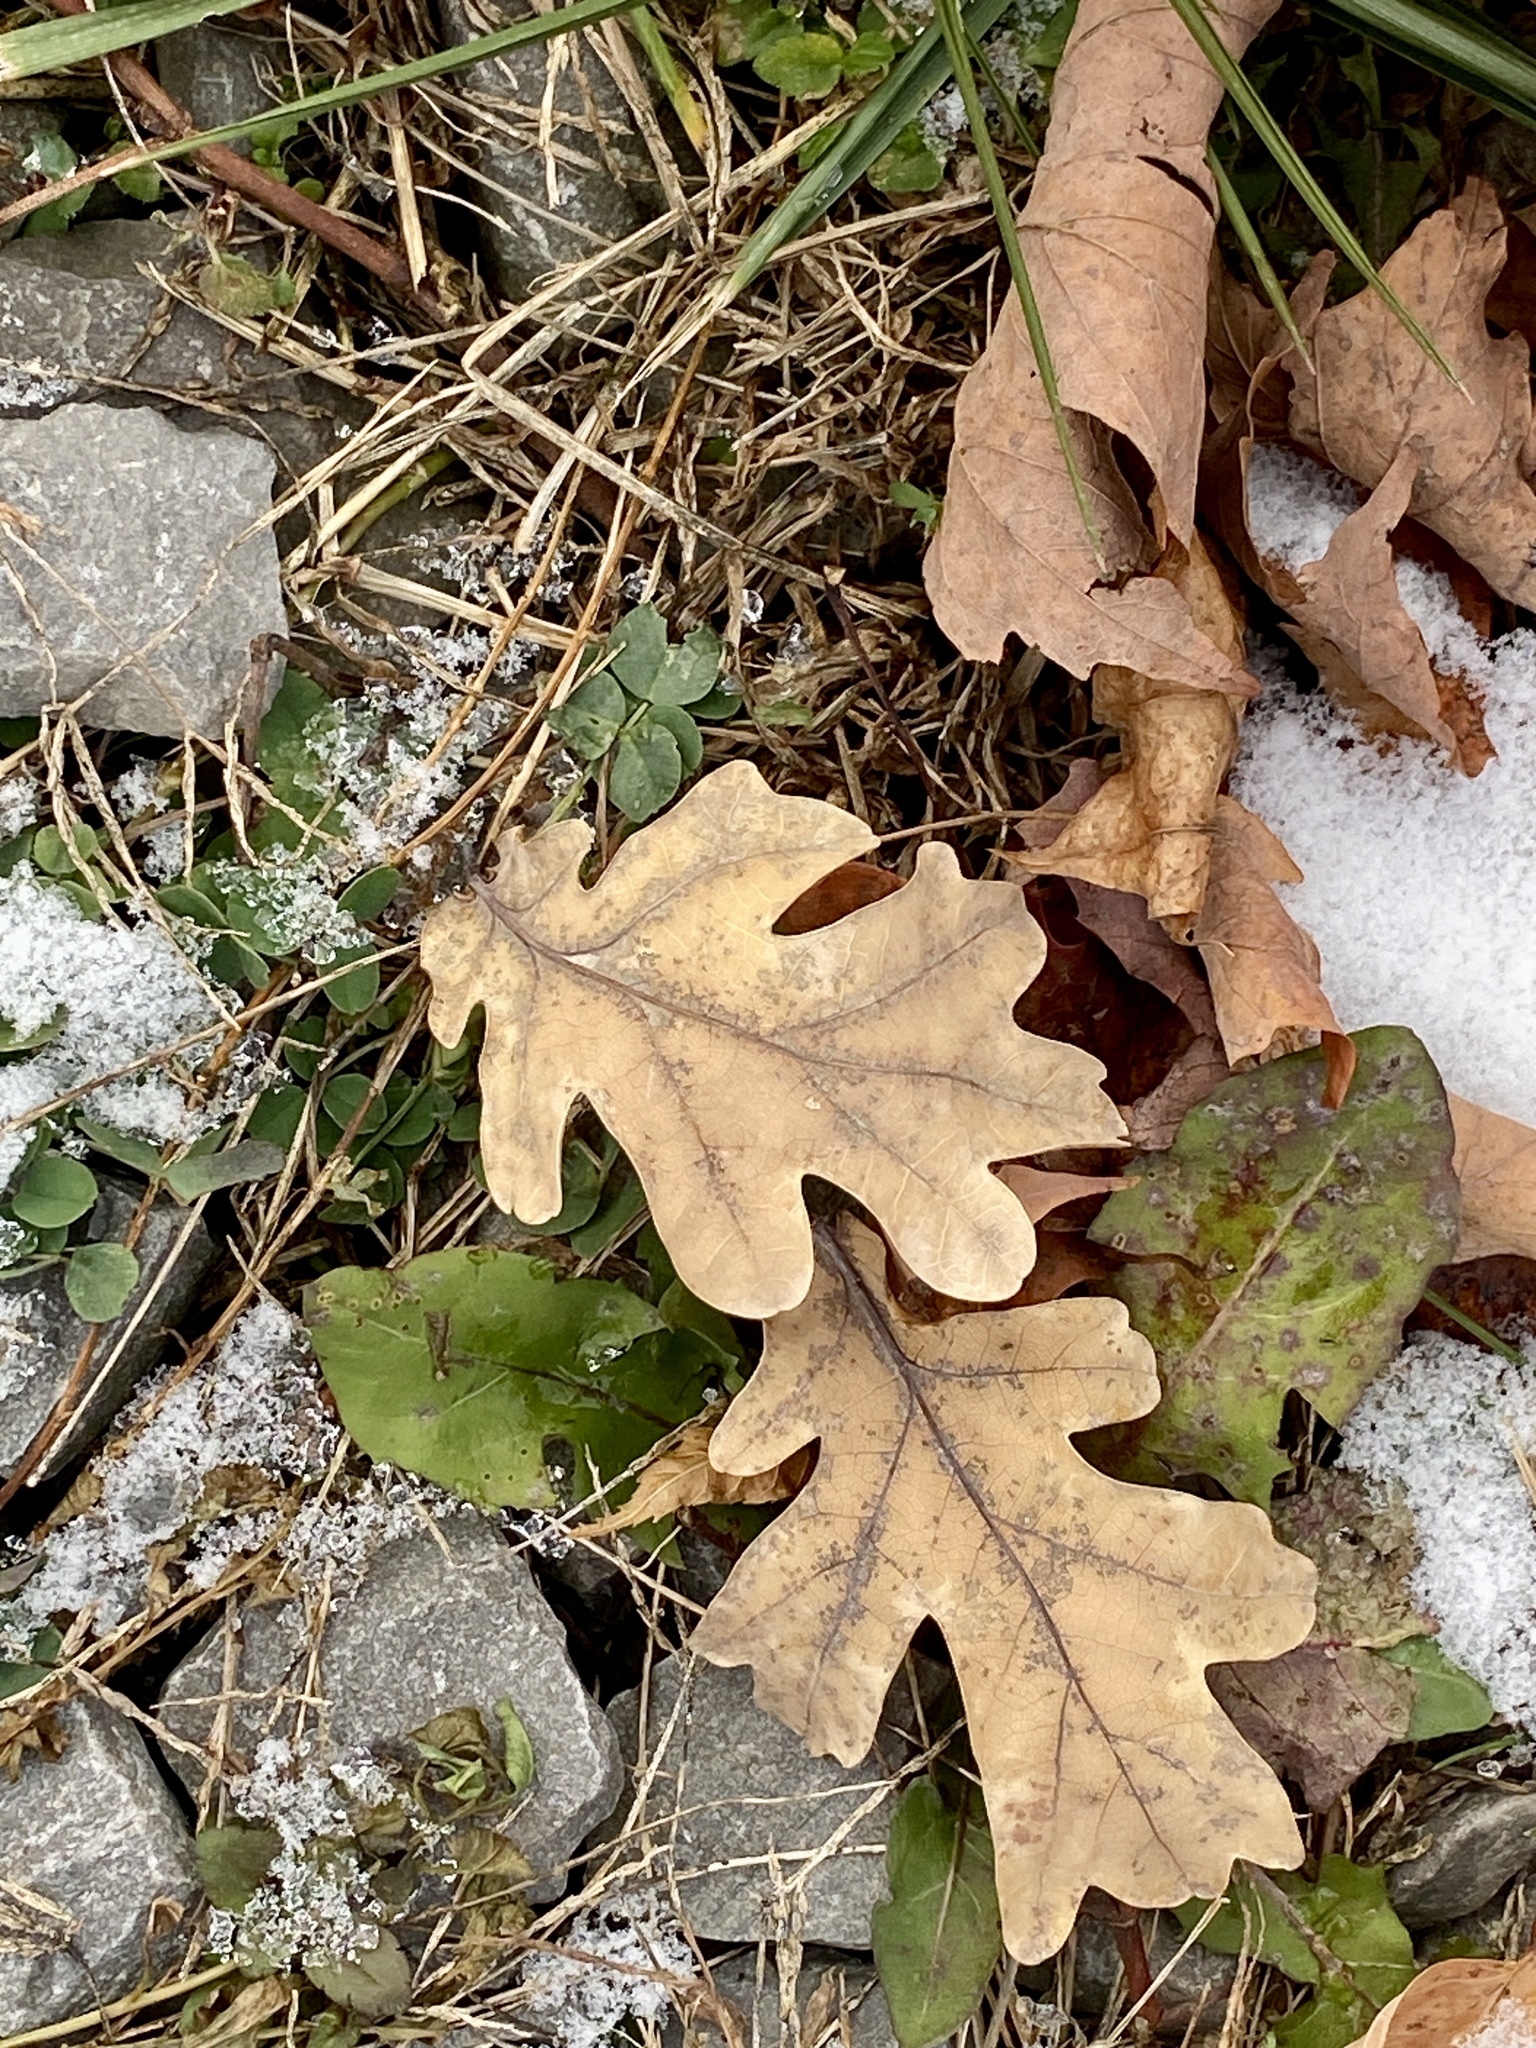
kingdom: Plantae
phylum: Tracheophyta
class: Magnoliopsida
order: Fagales
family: Fagaceae
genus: Quercus
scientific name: Quercus alba
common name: White oak
